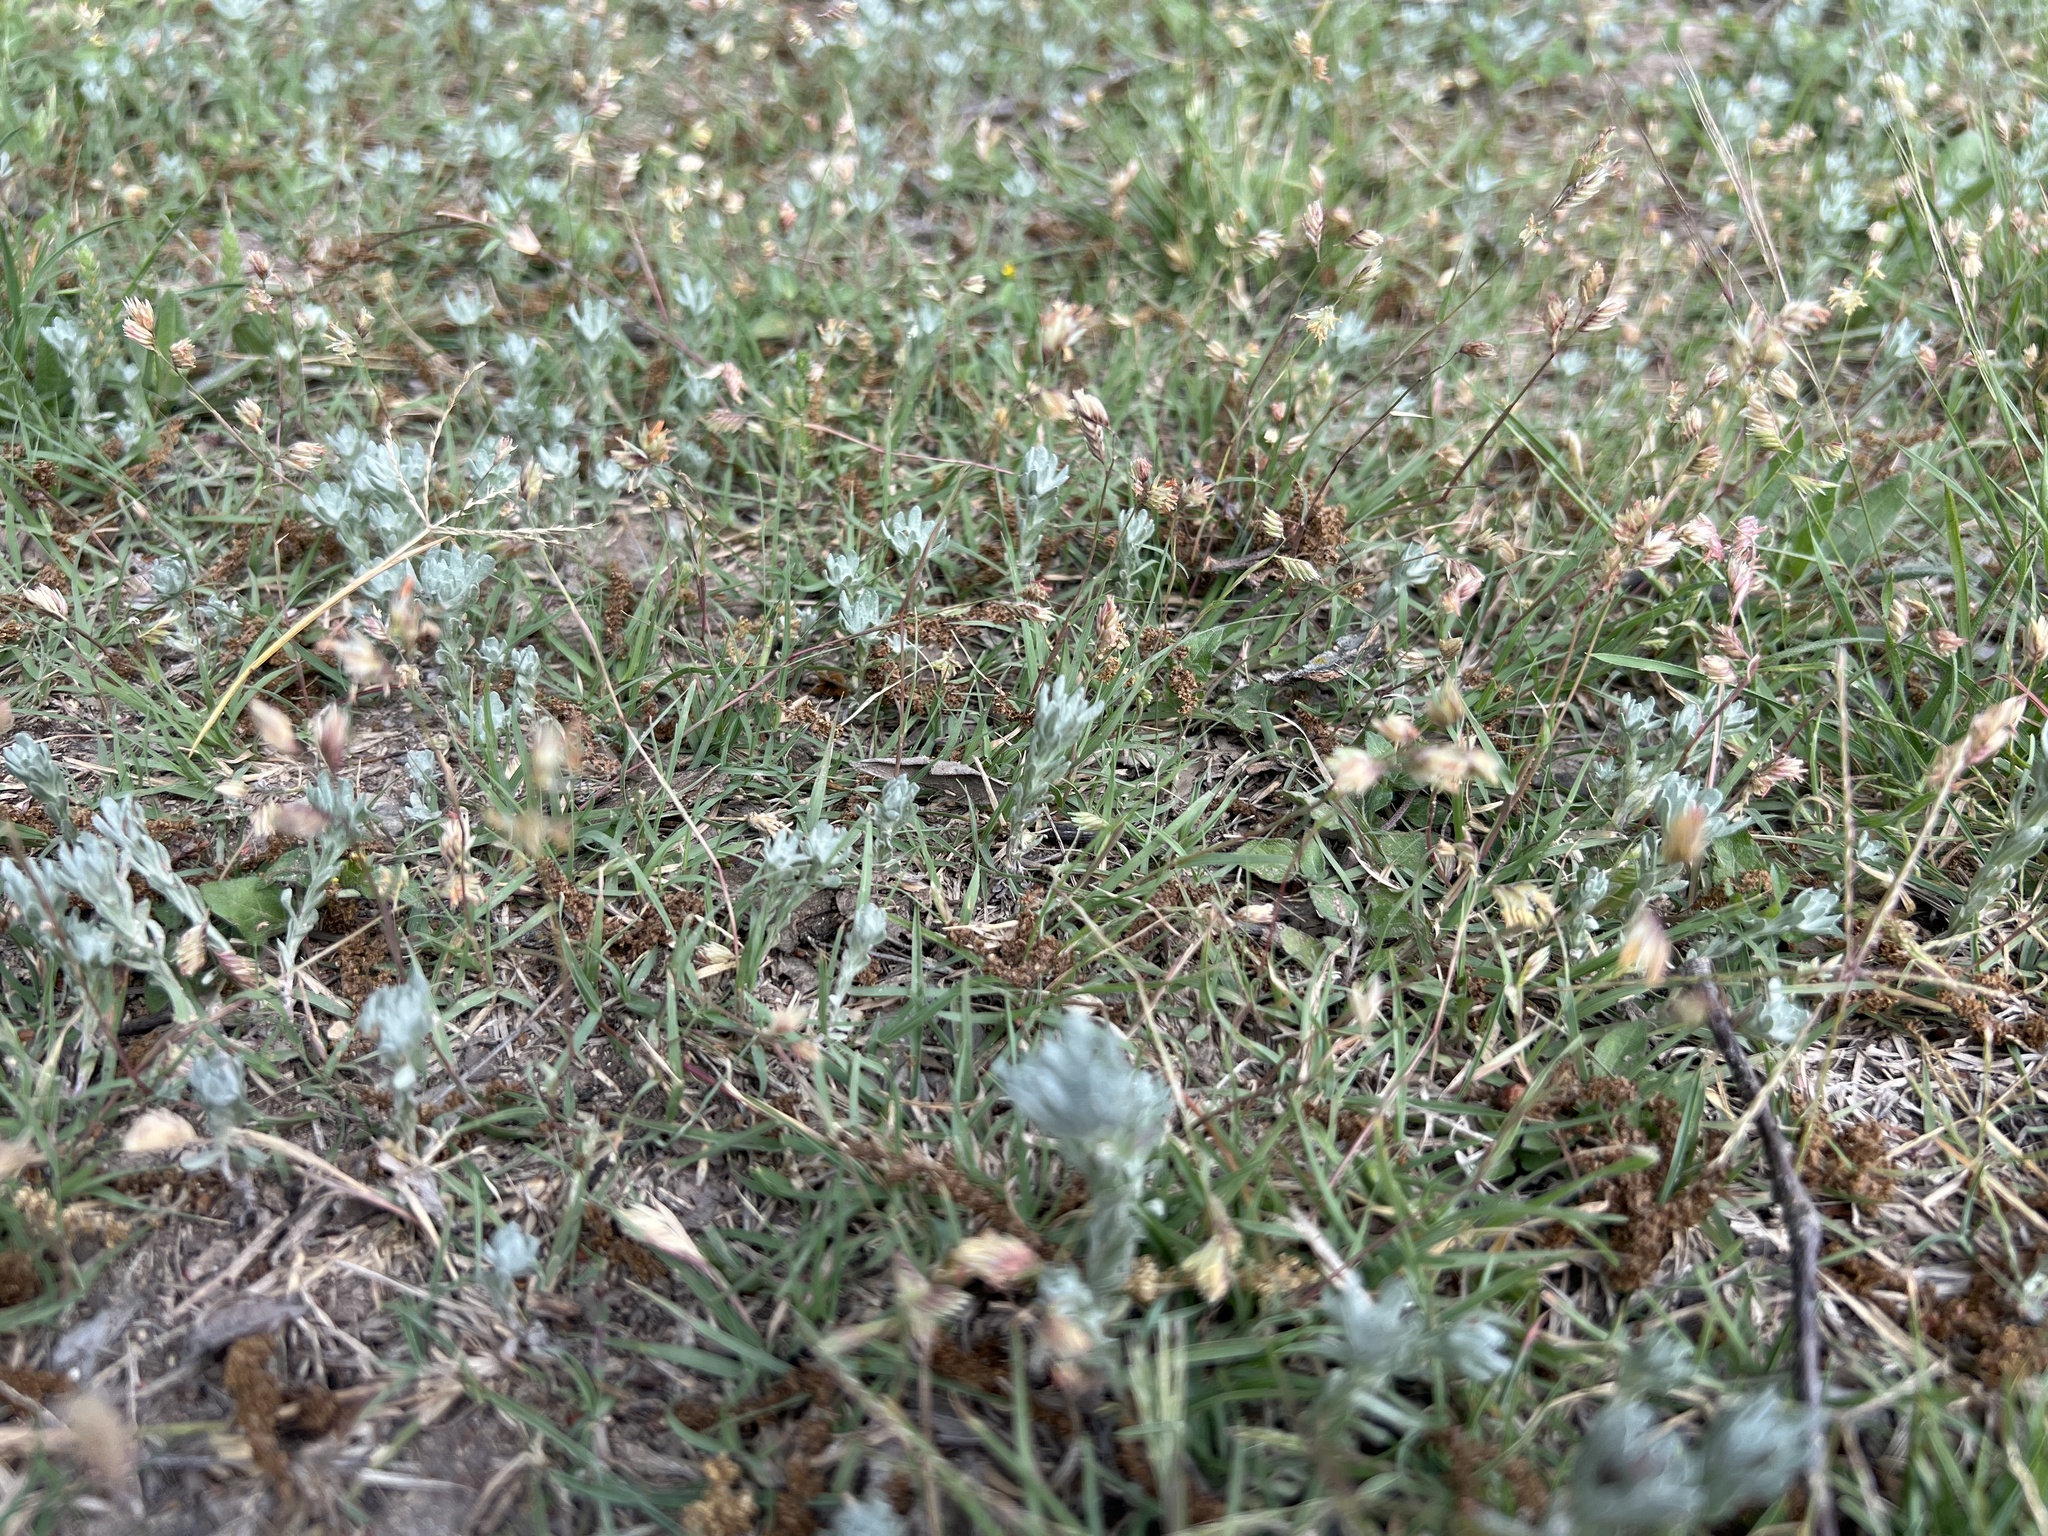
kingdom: Plantae
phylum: Tracheophyta
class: Liliopsida
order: Poales
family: Poaceae
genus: Bouteloua
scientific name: Bouteloua dactyloides
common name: Buffalo grass
